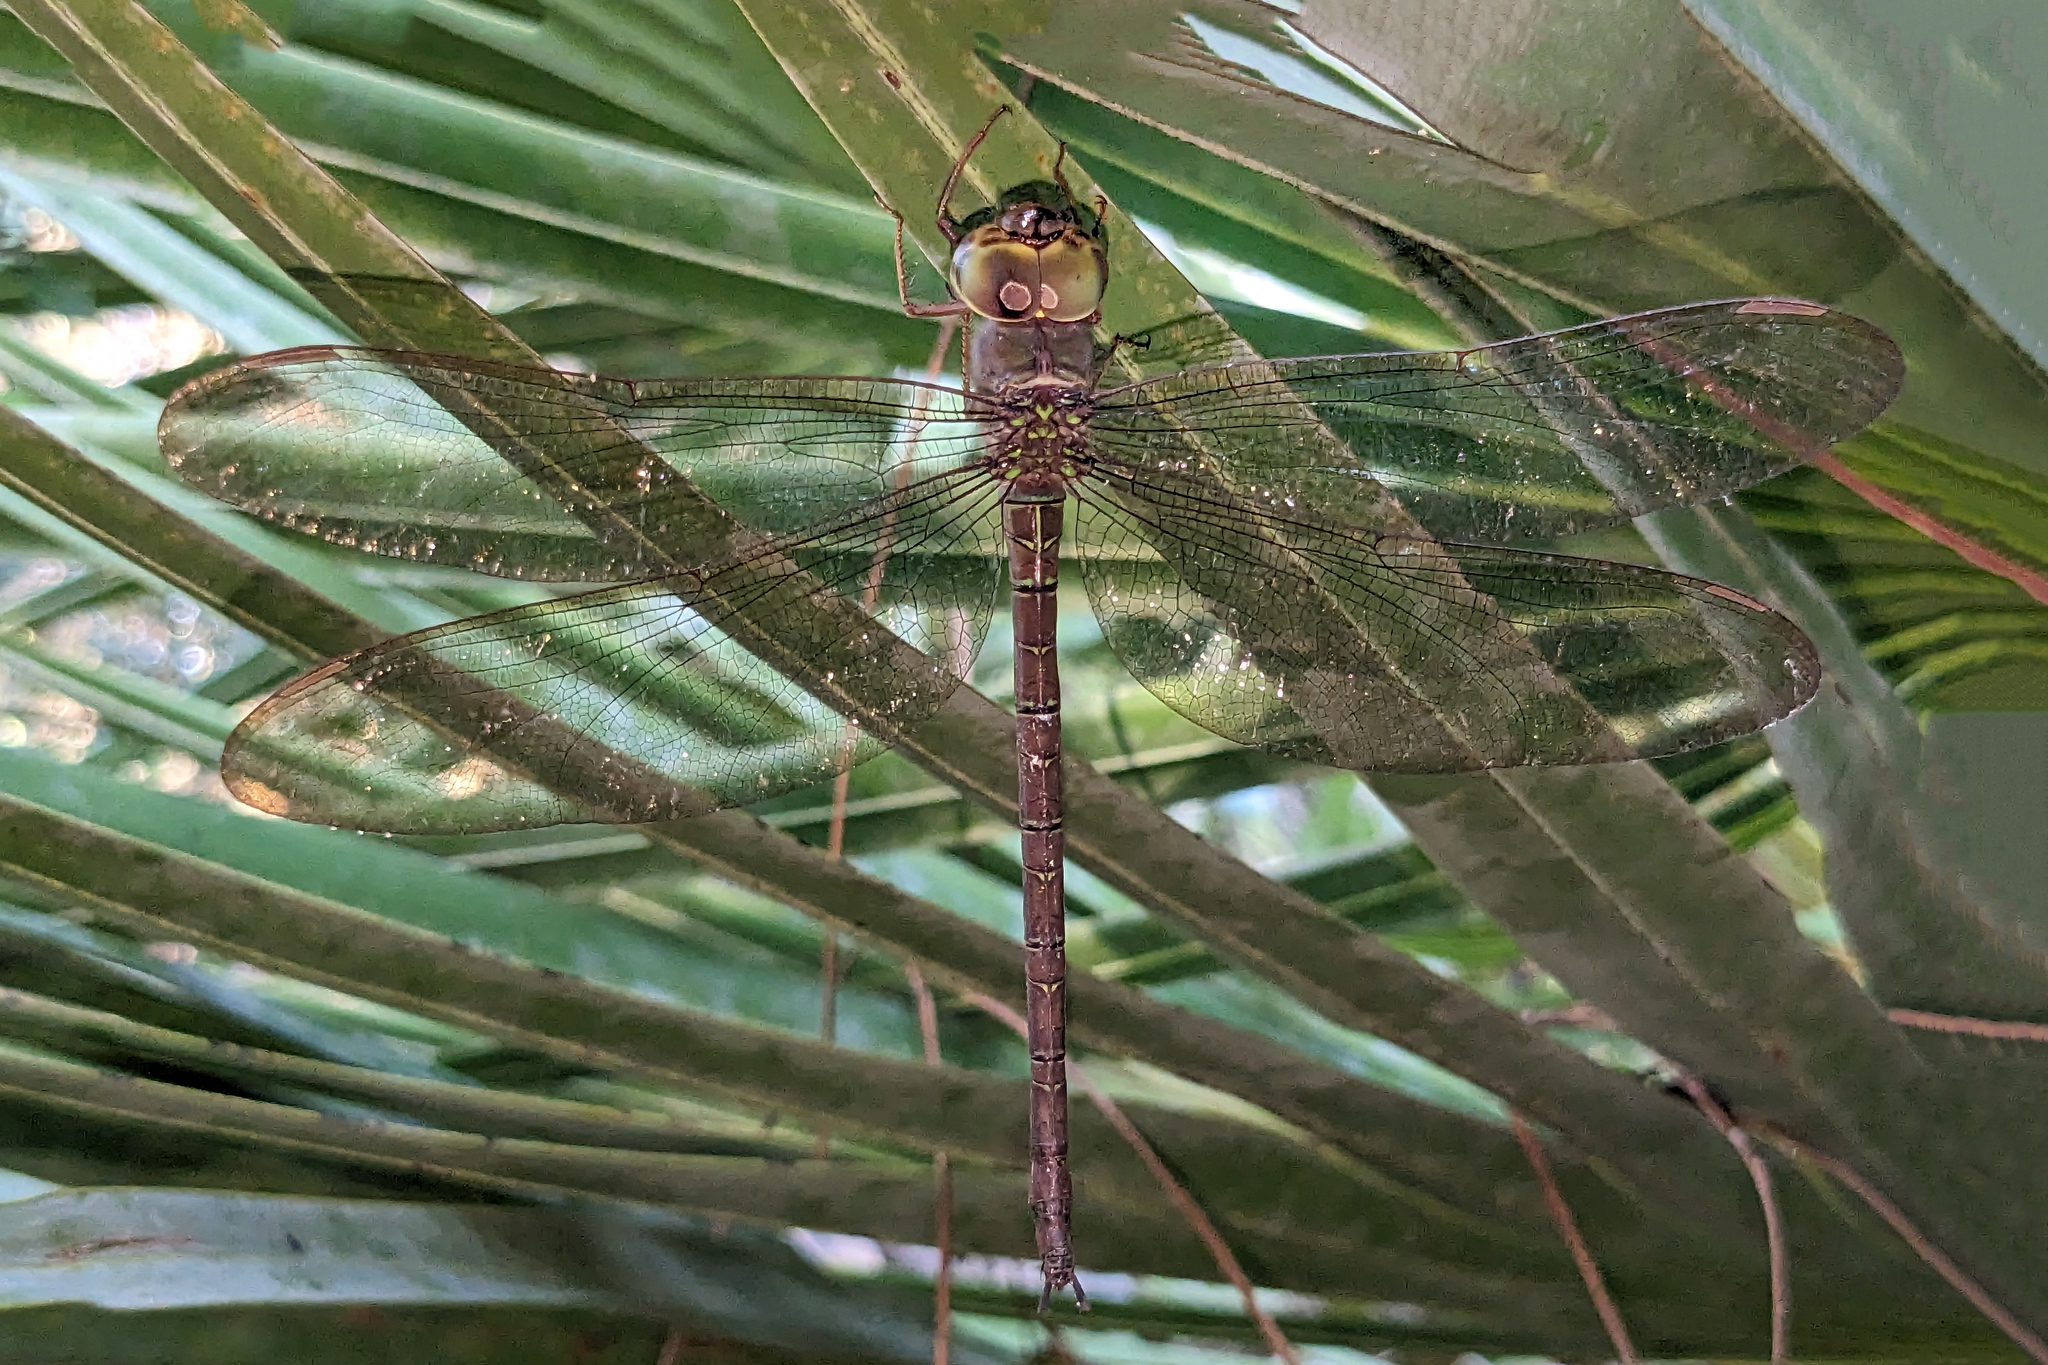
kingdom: Animalia
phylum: Arthropoda
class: Insecta
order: Odonata
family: Aeshnidae
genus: Gynacantha
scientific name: Gynacantha nervosa
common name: Twilight darner
